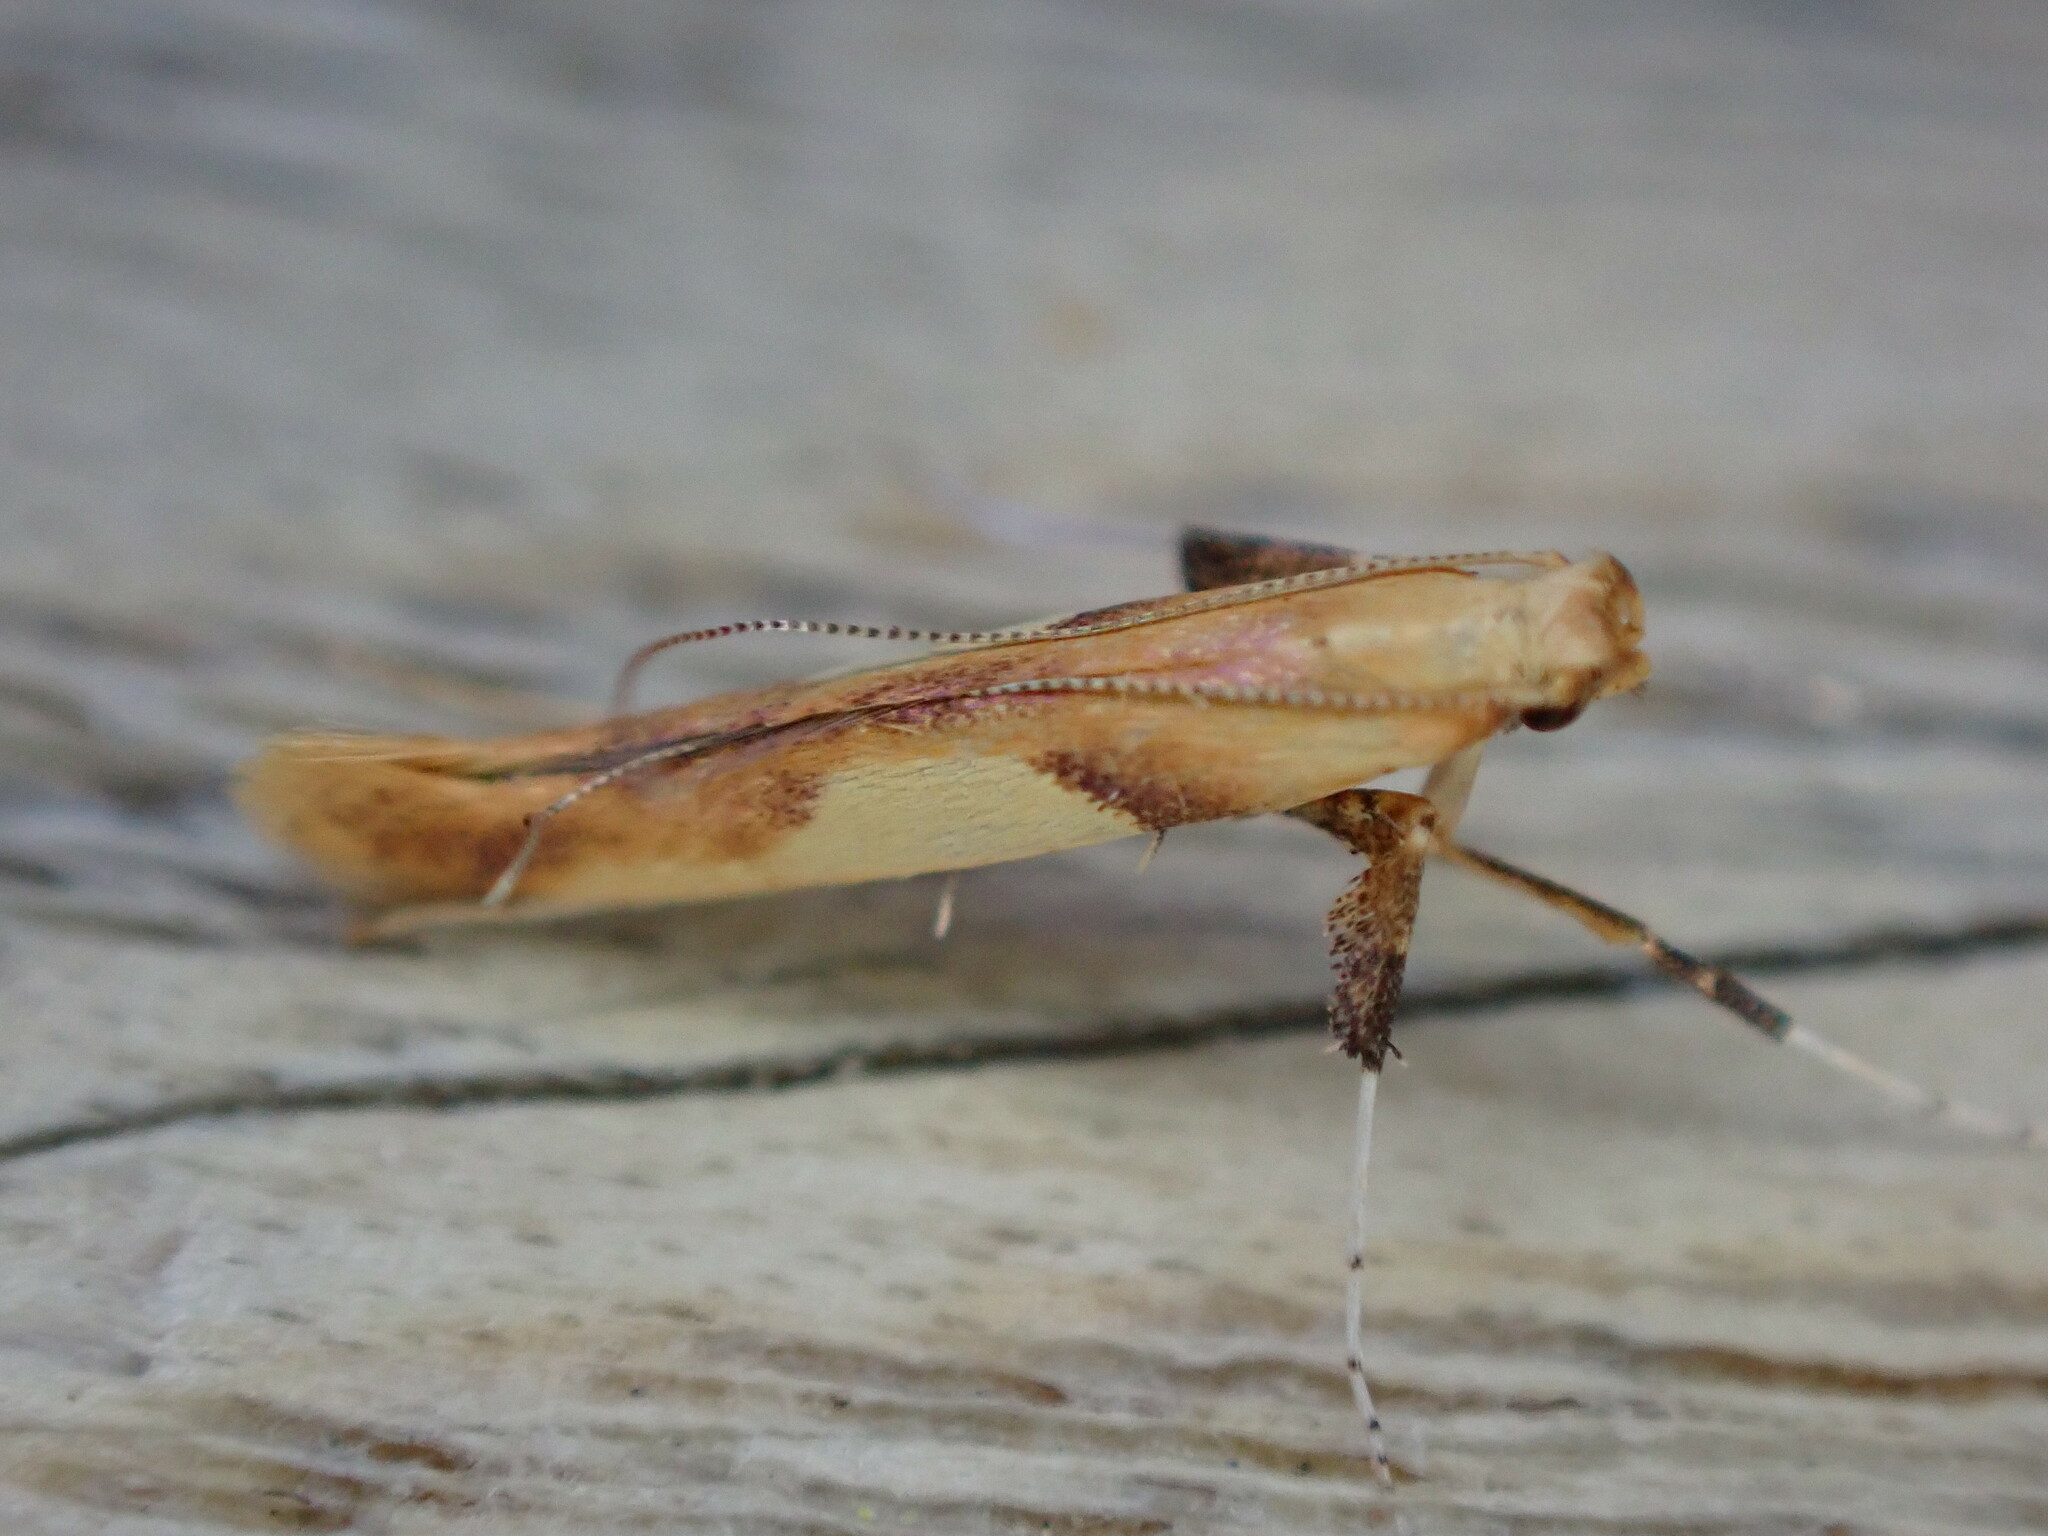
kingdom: Animalia
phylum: Arthropoda
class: Insecta
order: Lepidoptera
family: Gracillariidae
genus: Caloptilia
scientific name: Caloptilia stigmatella
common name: White-triangle slender
